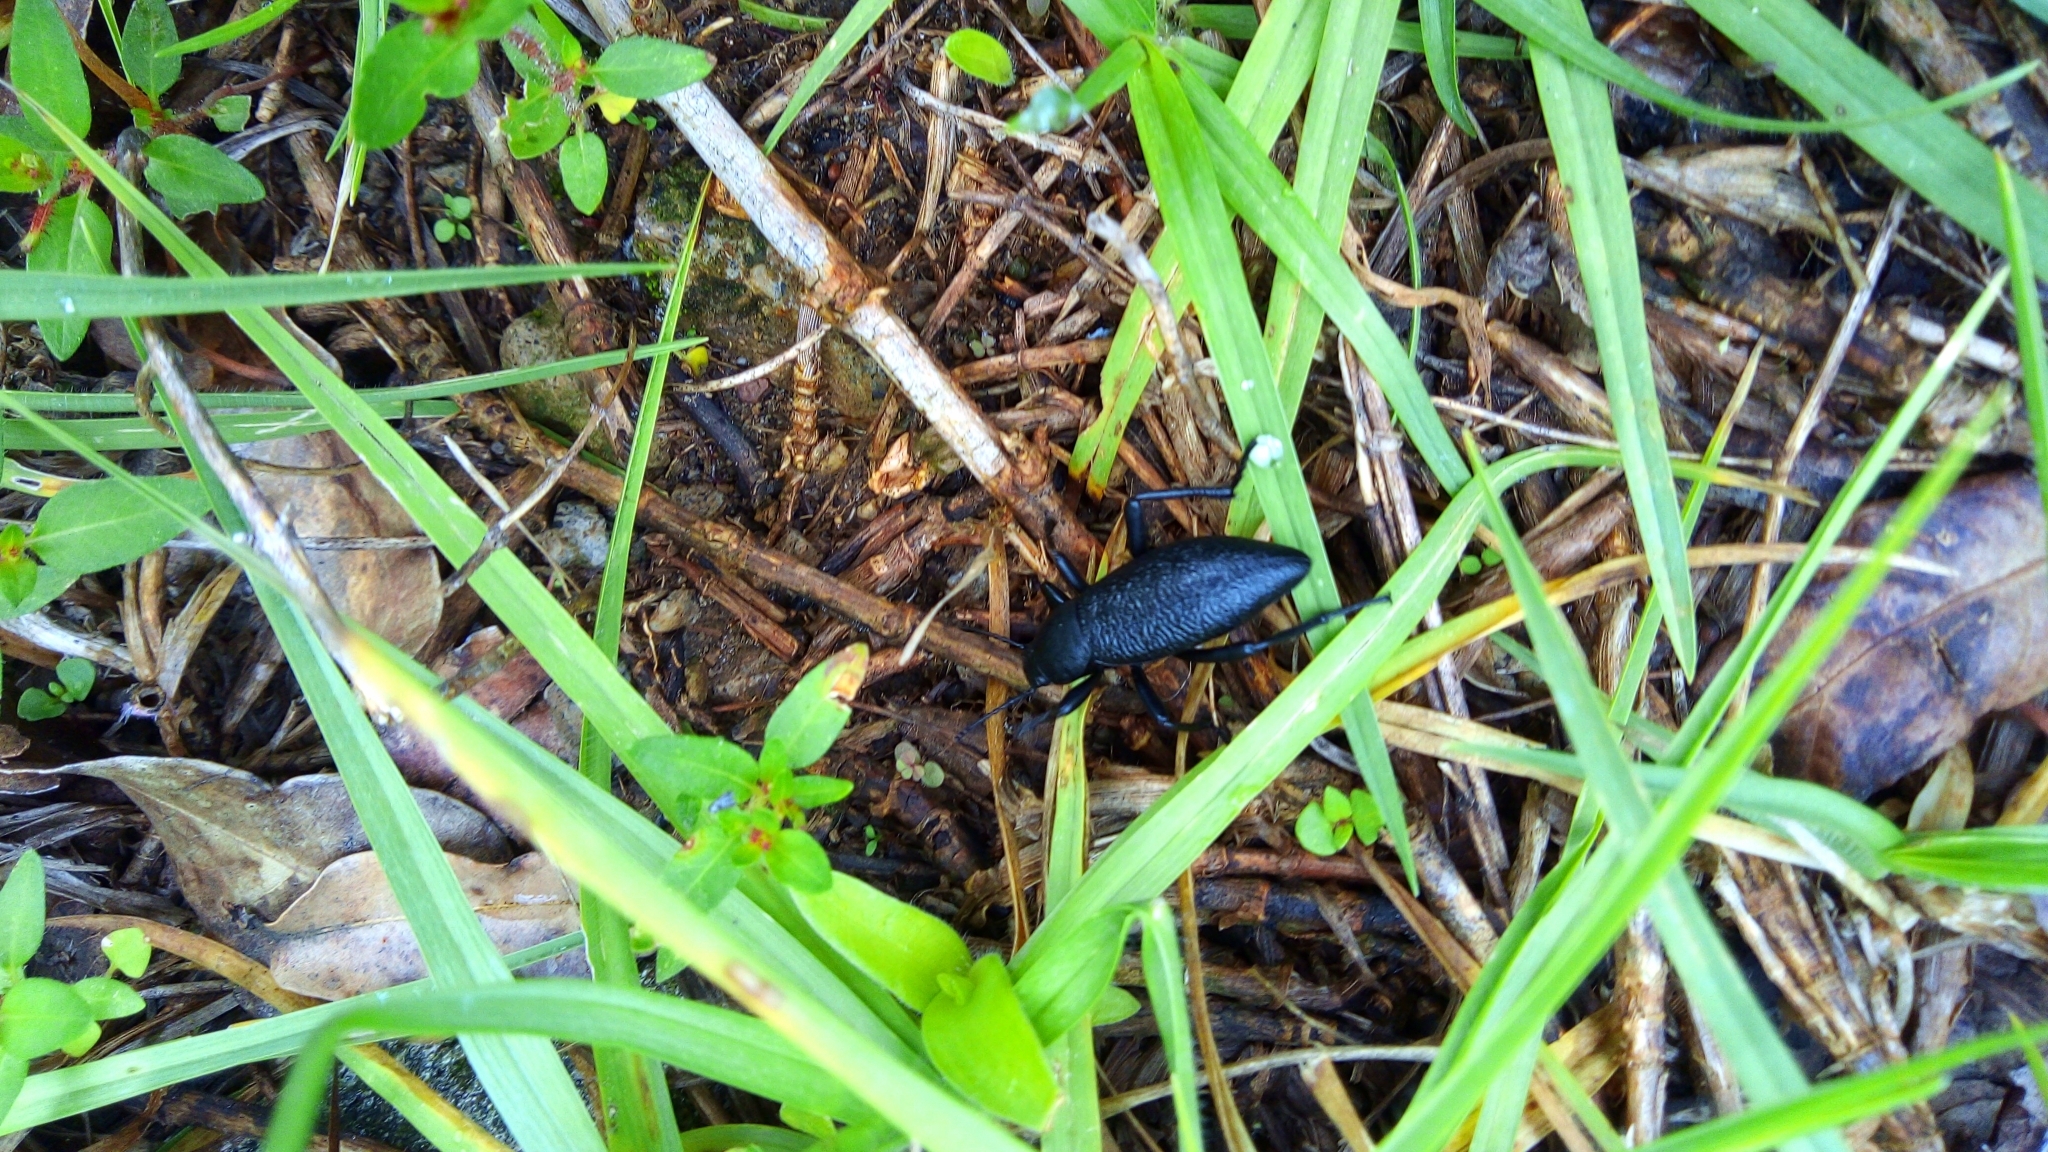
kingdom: Animalia
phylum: Arthropoda
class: Insecta
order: Coleoptera
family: Tenebrionidae
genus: Eleodes
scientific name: Eleodes ruida
